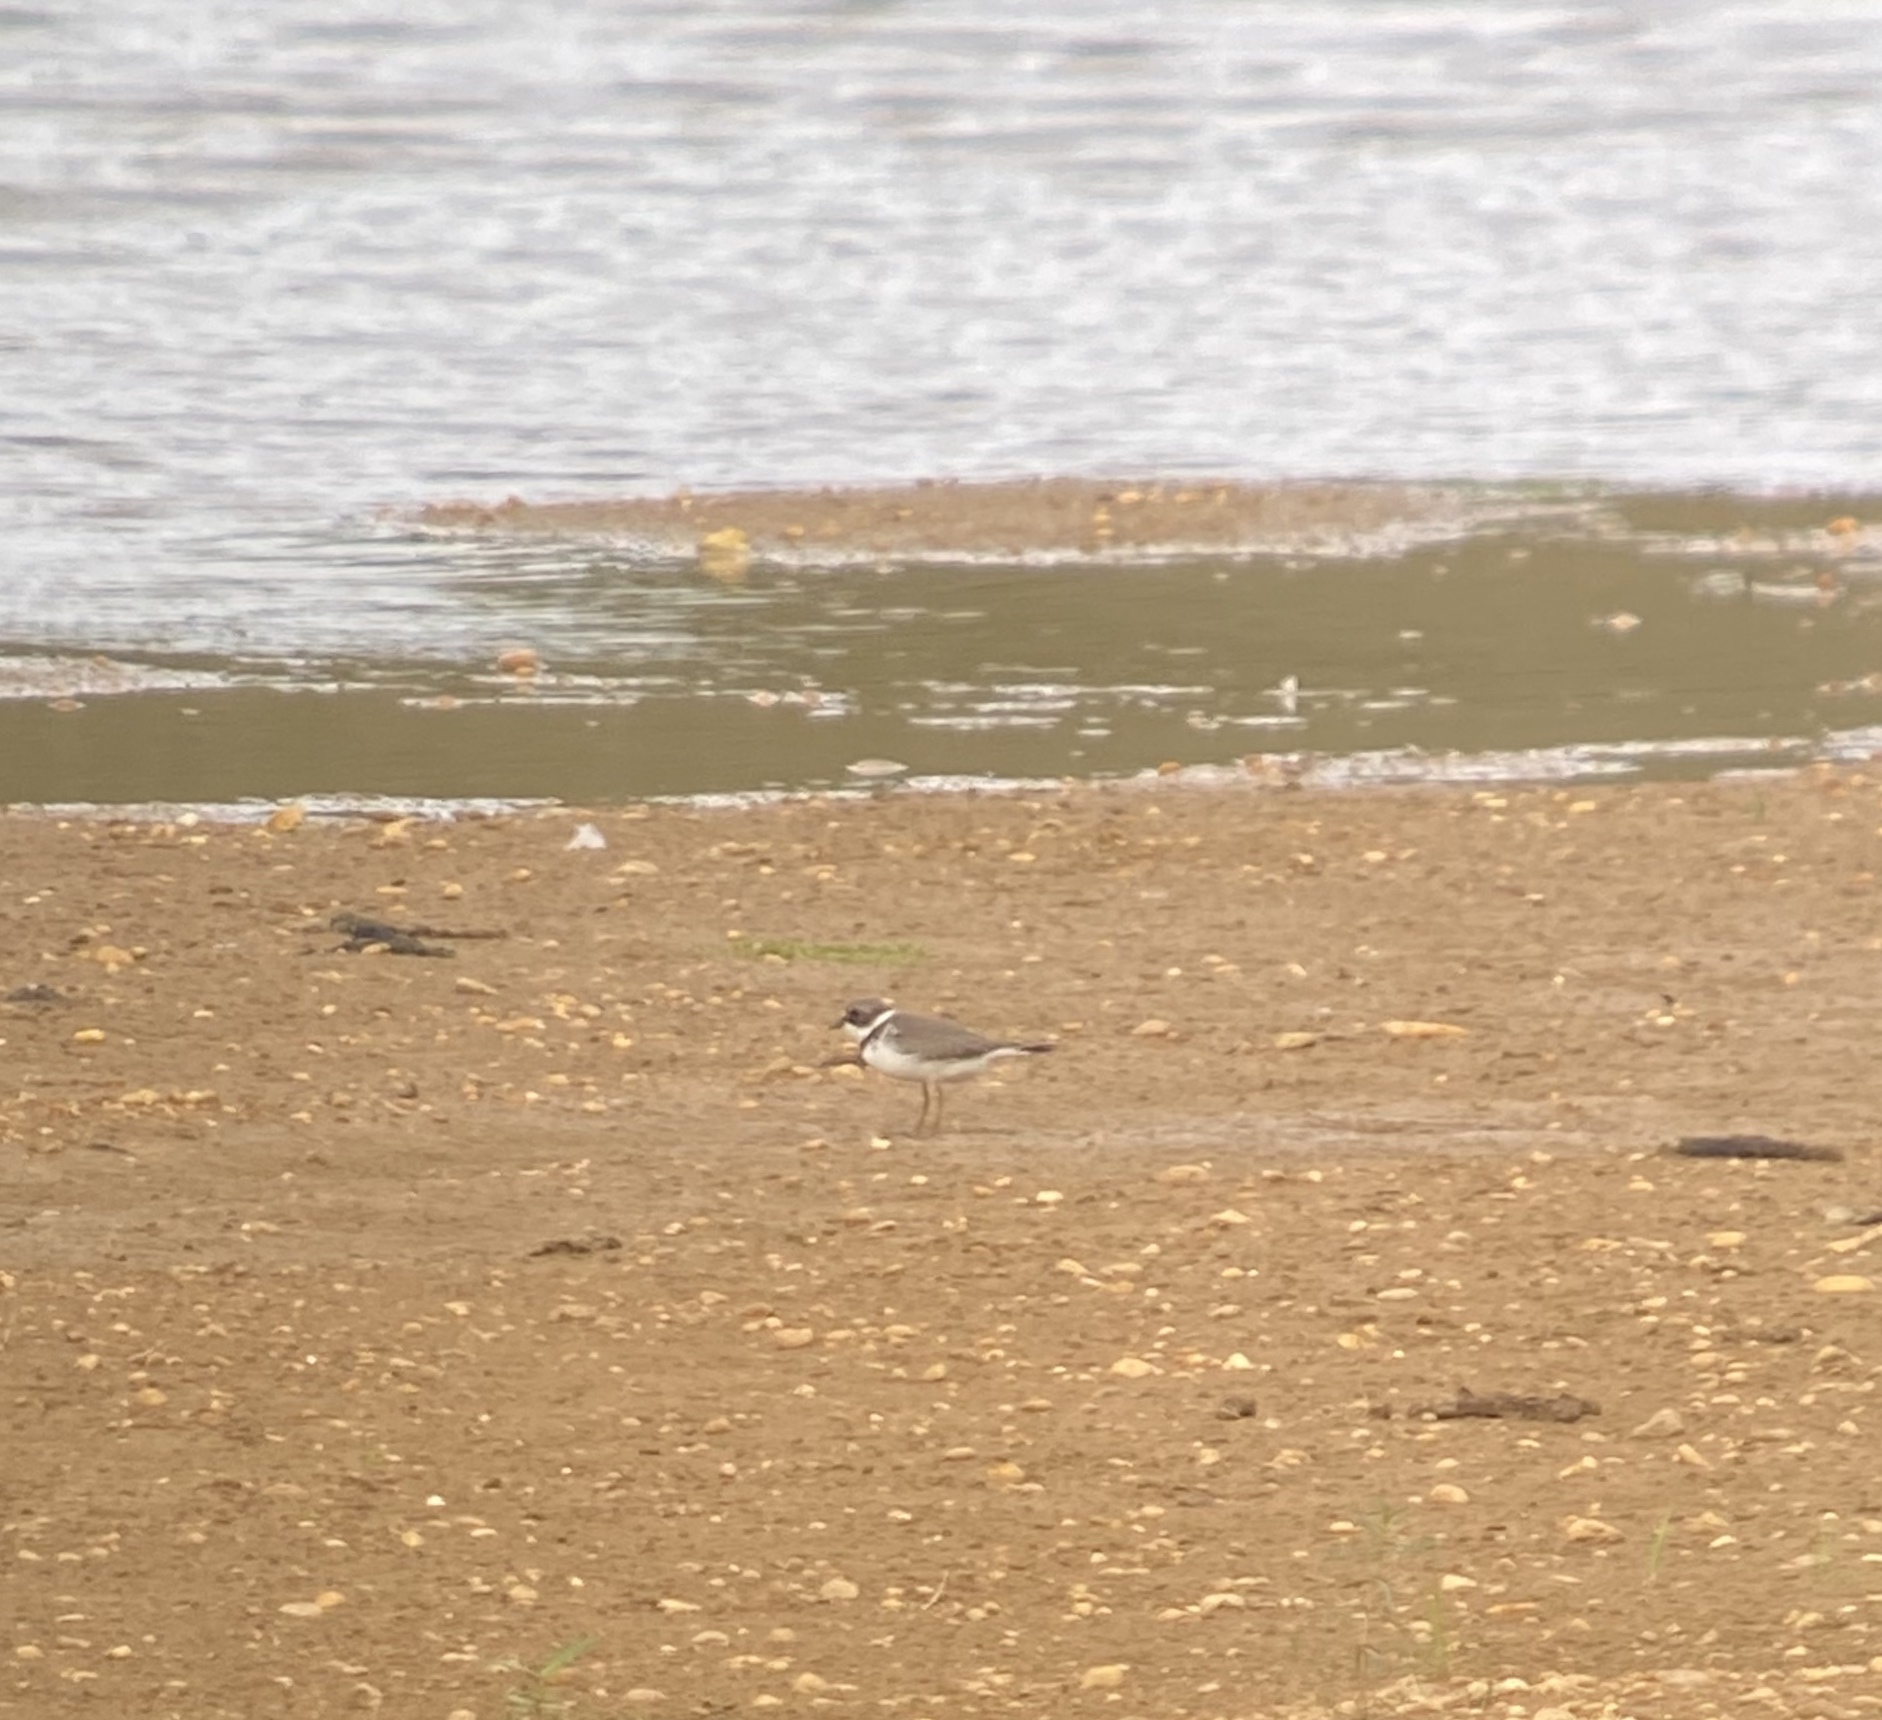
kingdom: Animalia
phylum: Chordata
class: Aves
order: Charadriiformes
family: Charadriidae
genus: Charadrius
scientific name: Charadrius semipalmatus
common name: Semipalmated plover
